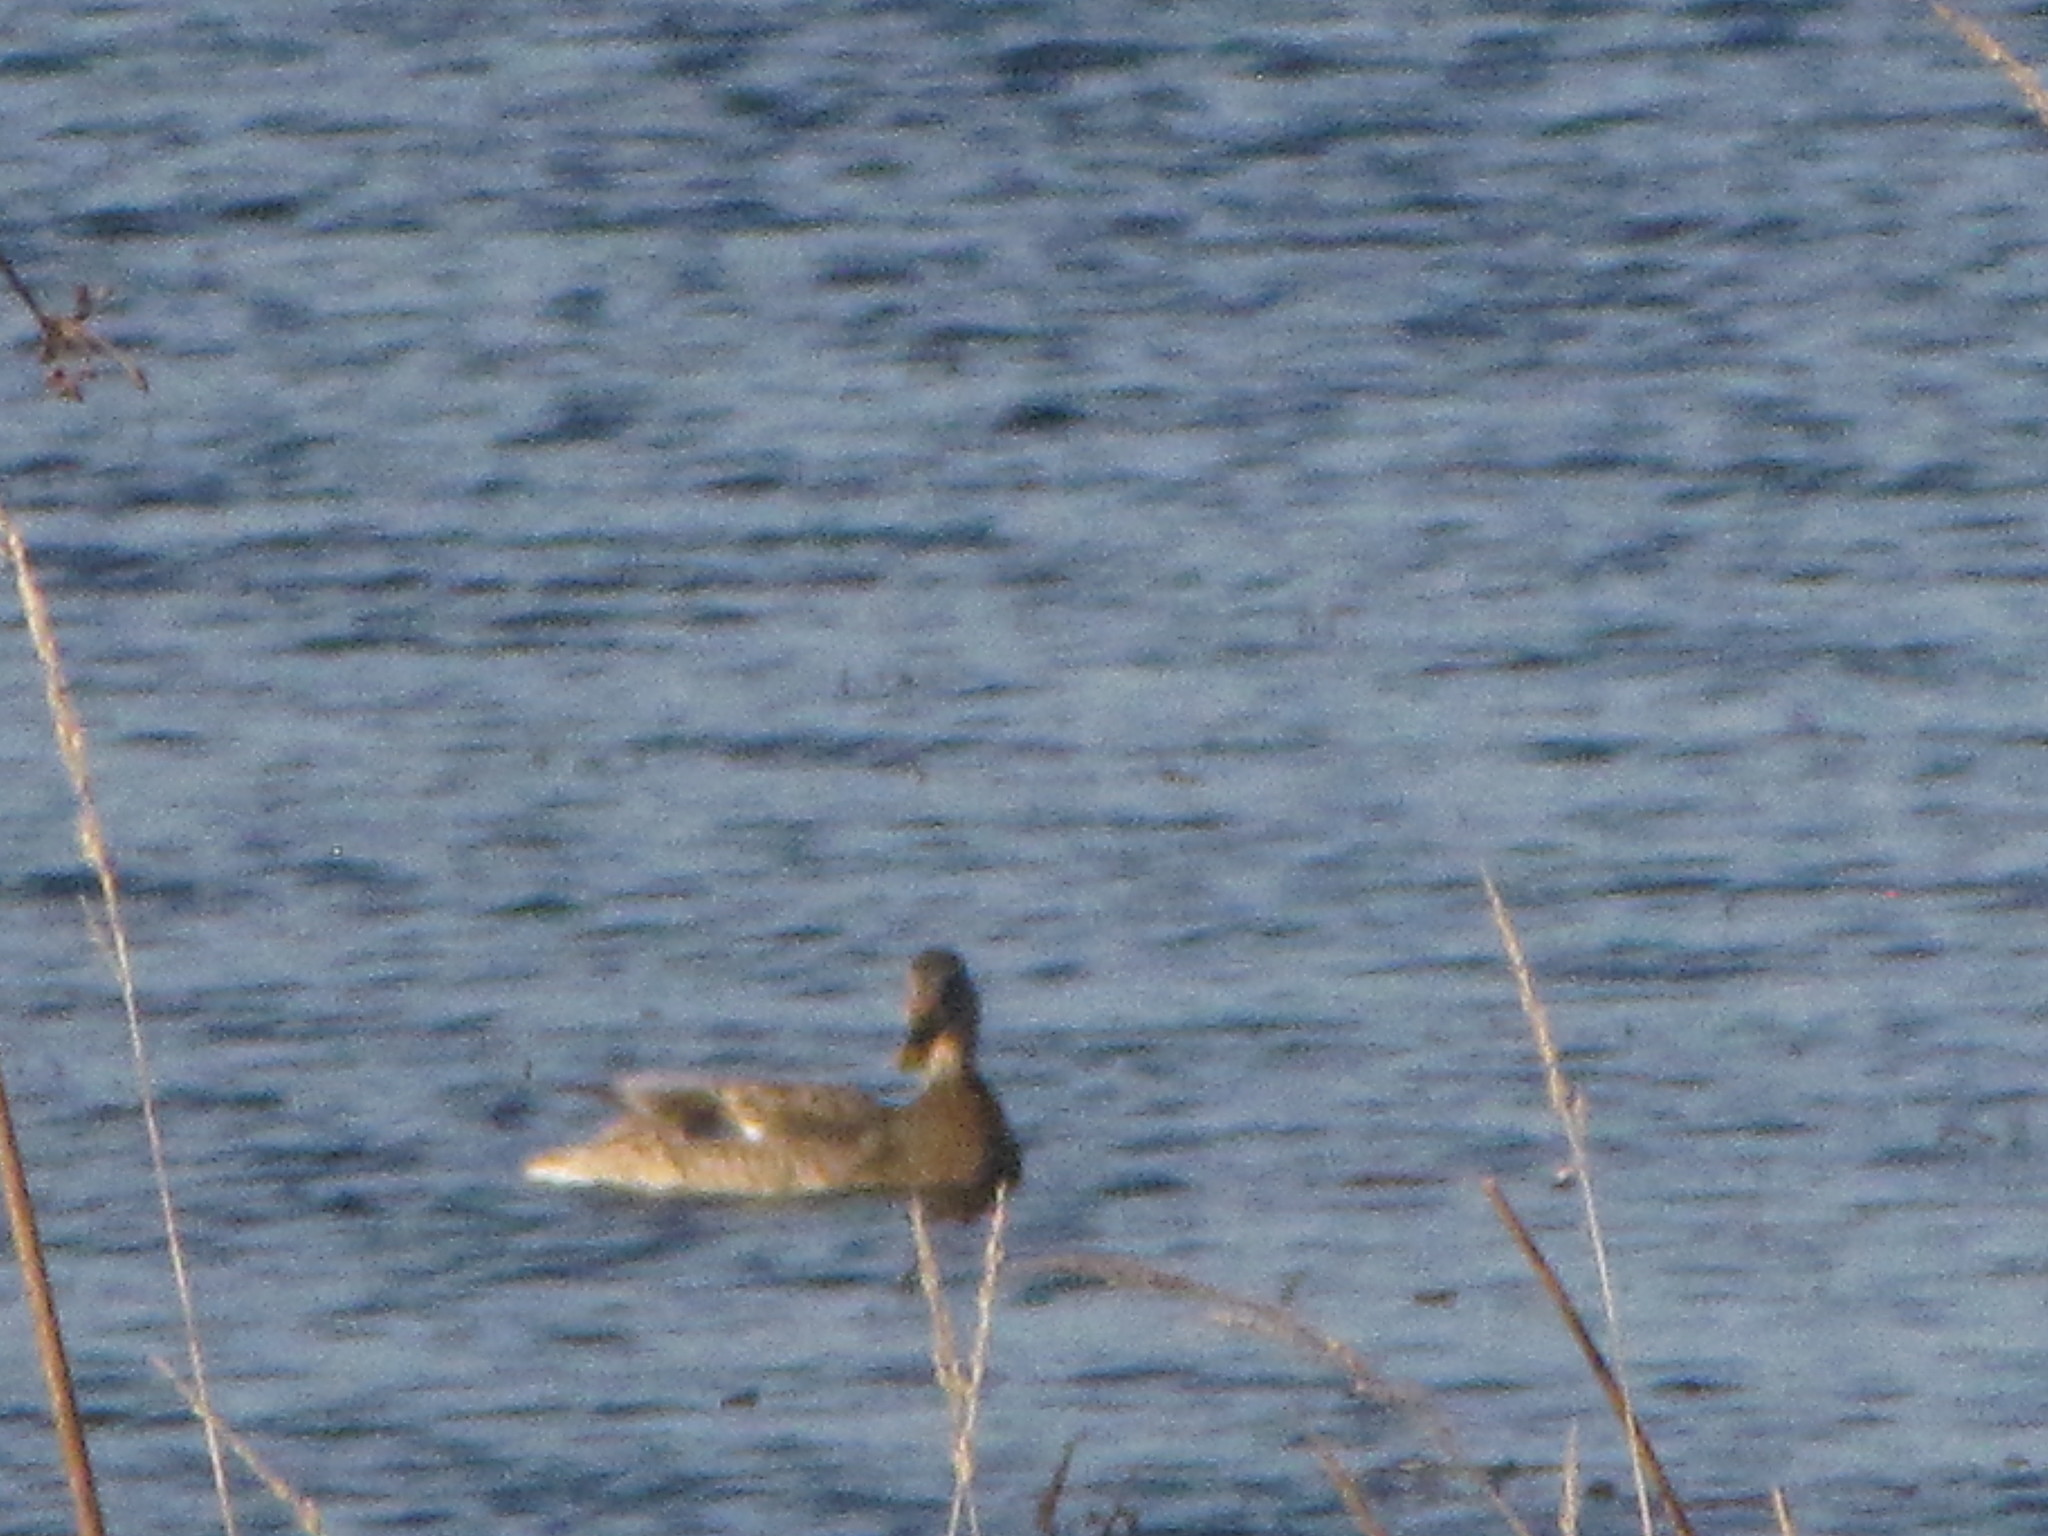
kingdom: Animalia
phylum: Chordata
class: Aves
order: Anseriformes
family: Anatidae
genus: Anas
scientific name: Anas platyrhynchos
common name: Mallard
